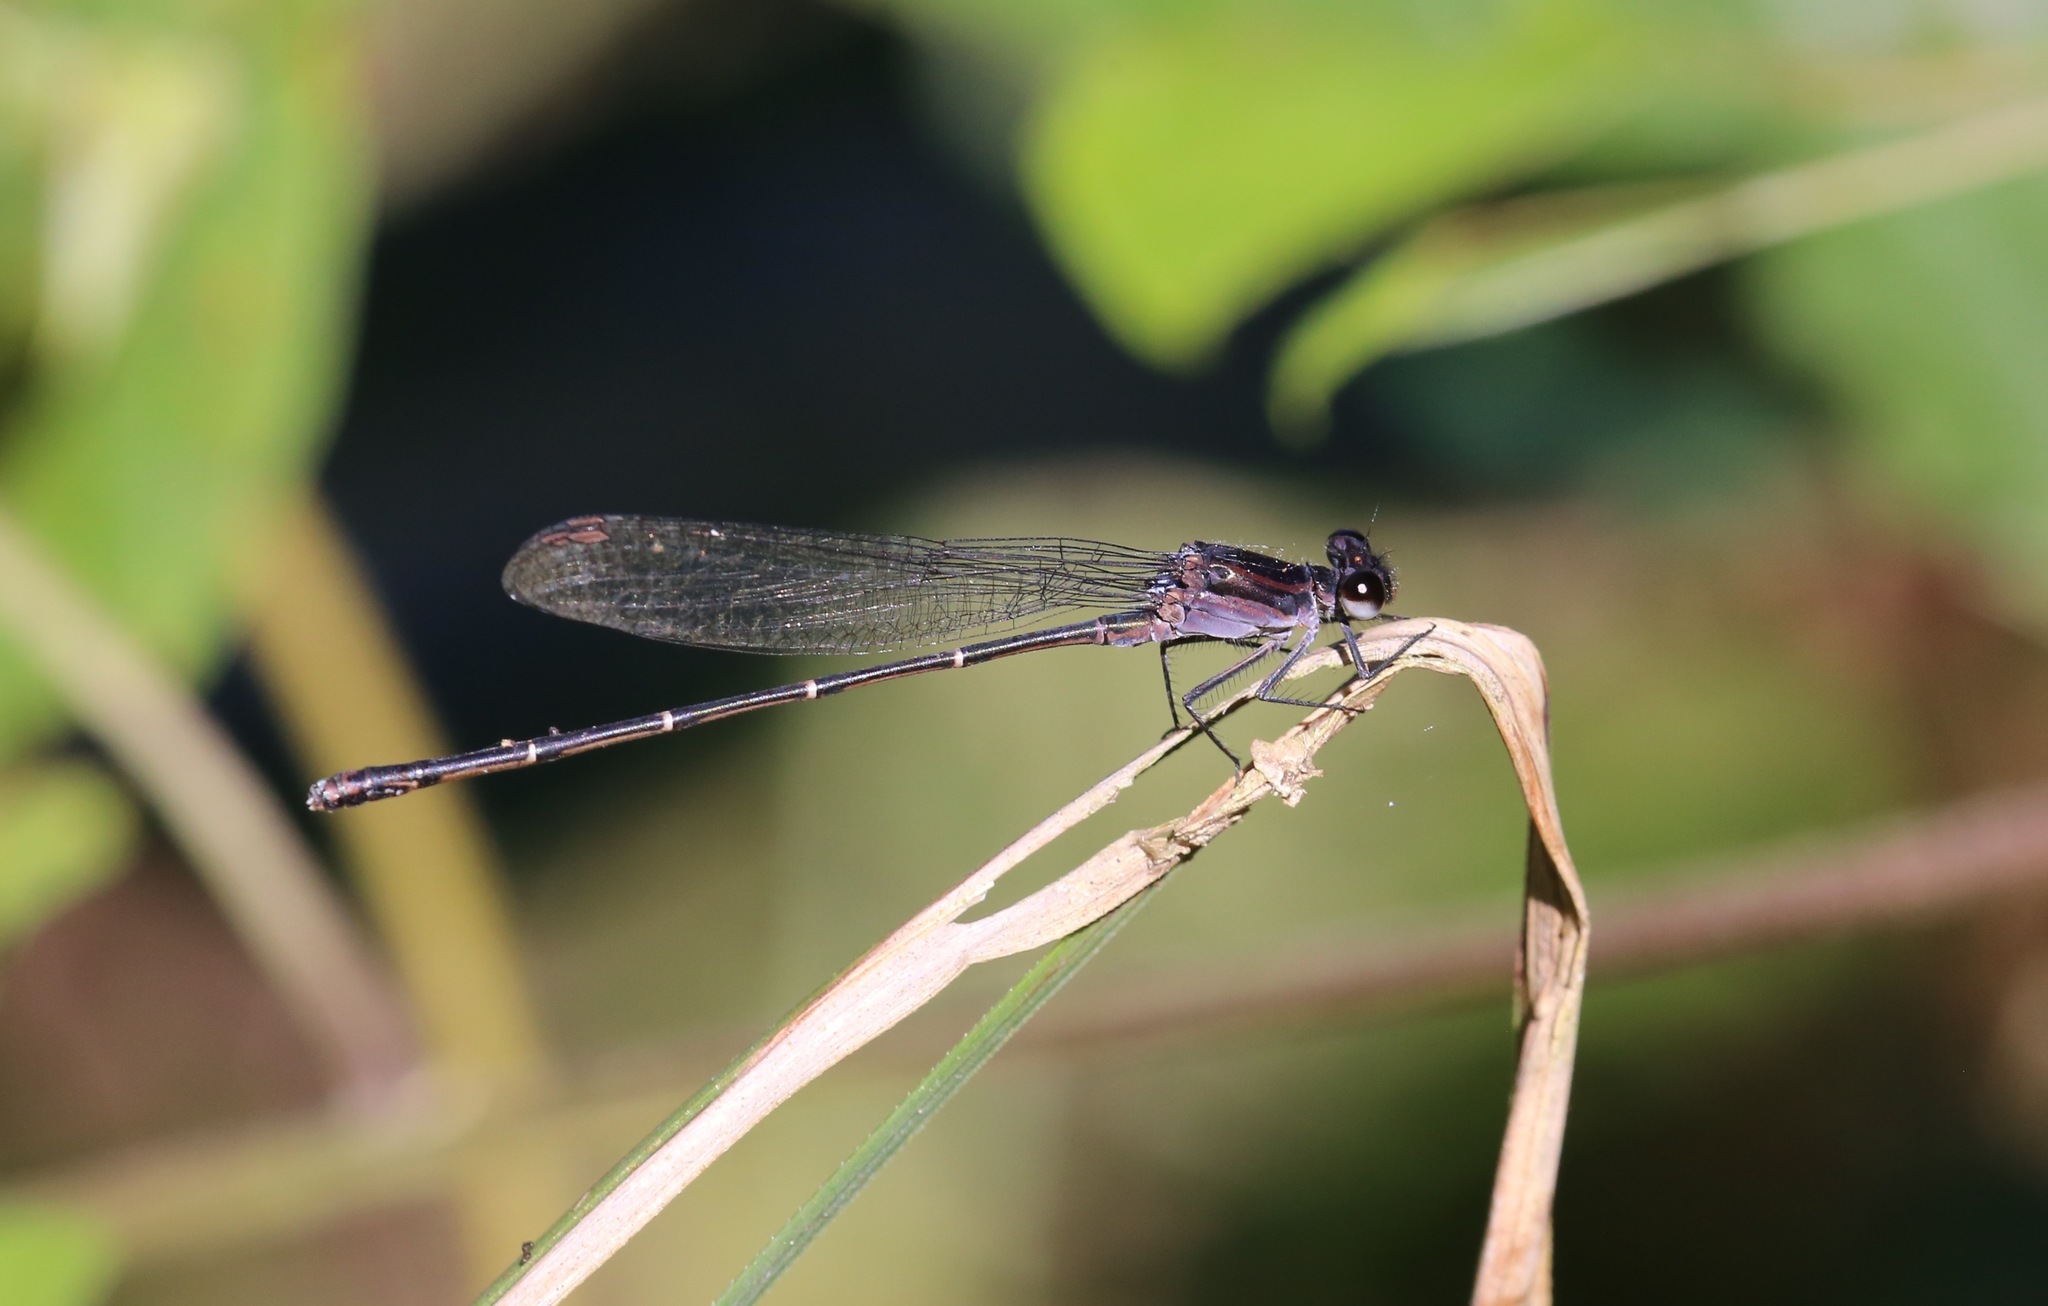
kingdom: Animalia
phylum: Arthropoda
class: Insecta
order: Odonata
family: Coenagrionidae
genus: Argia
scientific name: Argia tezpi
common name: Tezpi dancer
